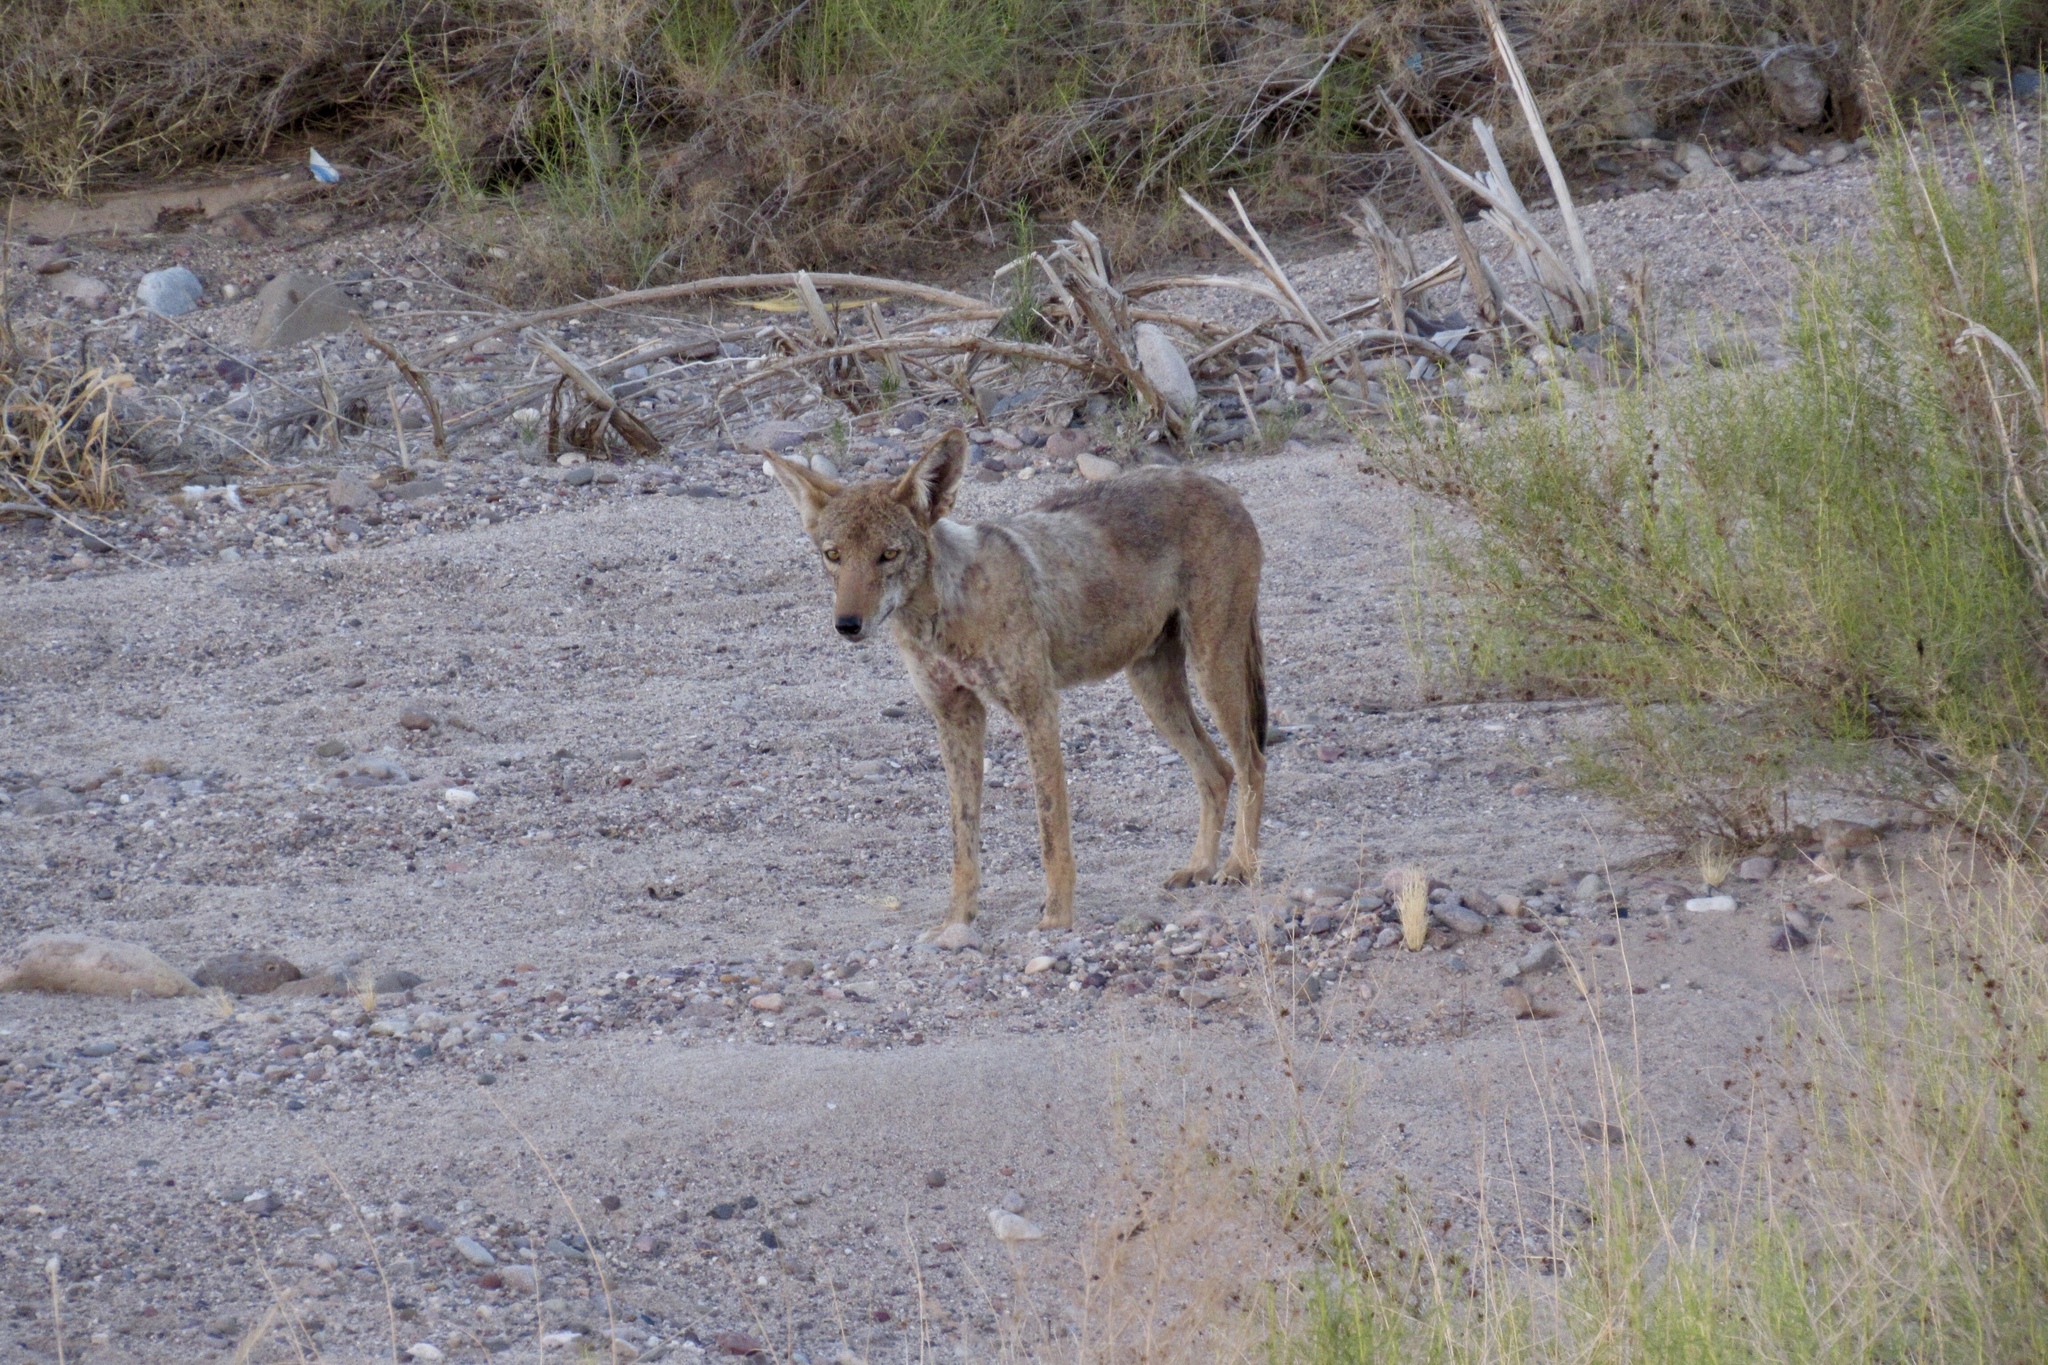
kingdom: Animalia
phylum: Chordata
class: Mammalia
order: Carnivora
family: Canidae
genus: Canis
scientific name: Canis latrans
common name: Coyote
